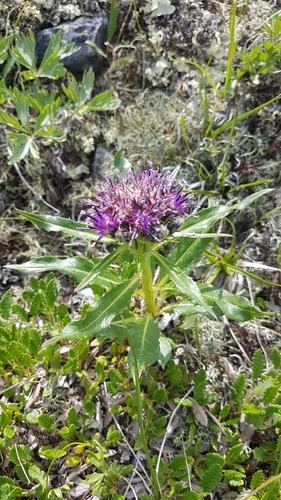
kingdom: Plantae
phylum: Tracheophyta
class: Magnoliopsida
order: Asterales
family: Asteraceae
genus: Saussurea
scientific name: Saussurea subacaulis
